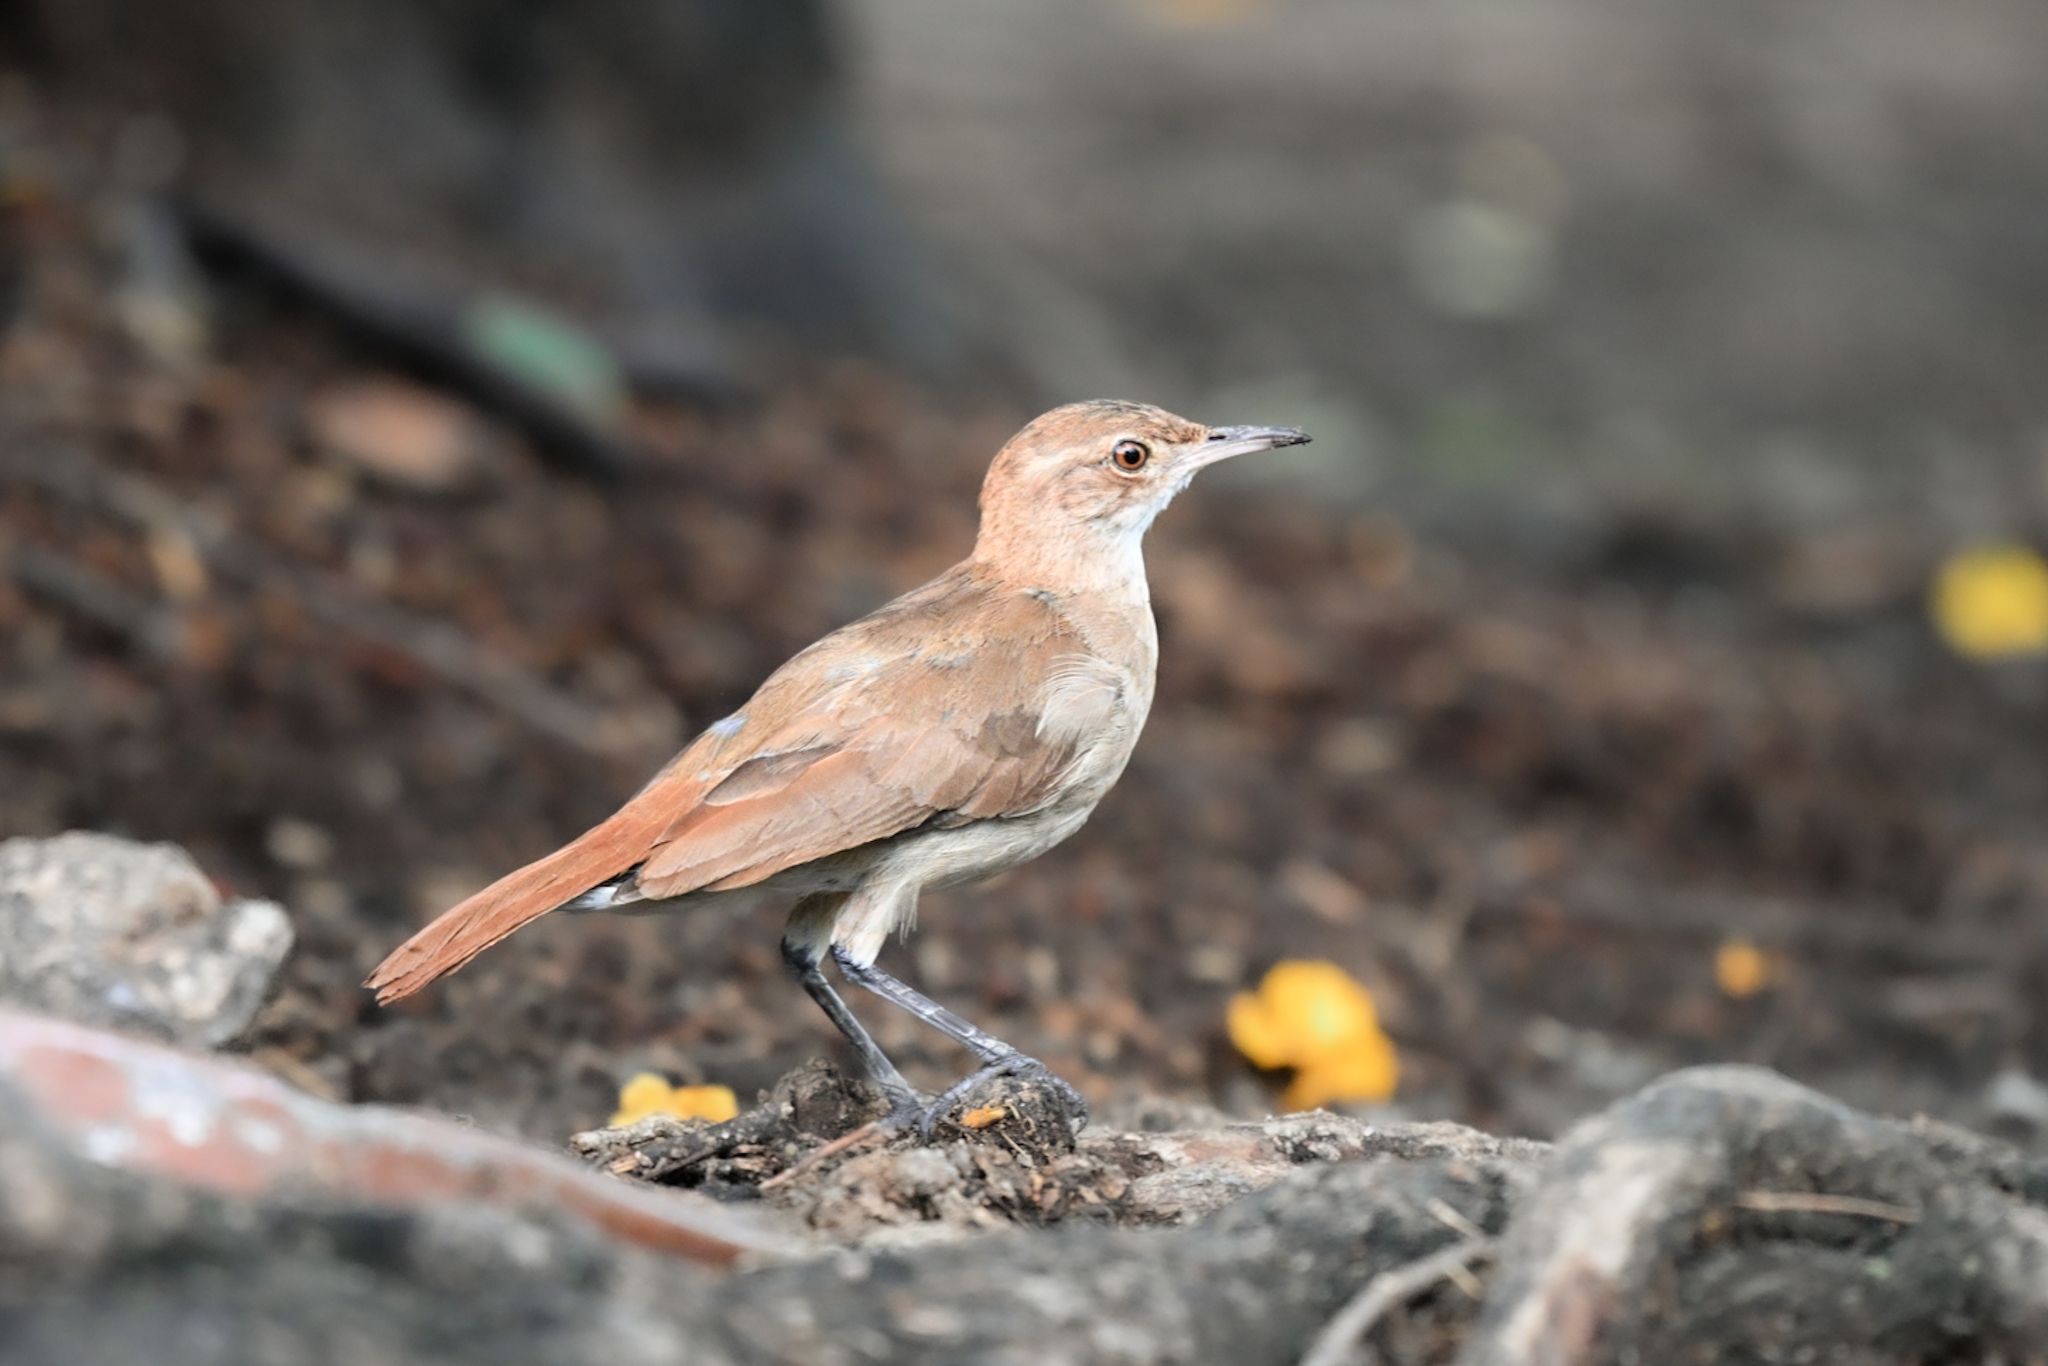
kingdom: Animalia
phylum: Chordata
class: Aves
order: Passeriformes
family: Furnariidae
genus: Furnarius
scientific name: Furnarius rufus
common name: Rufous hornero
